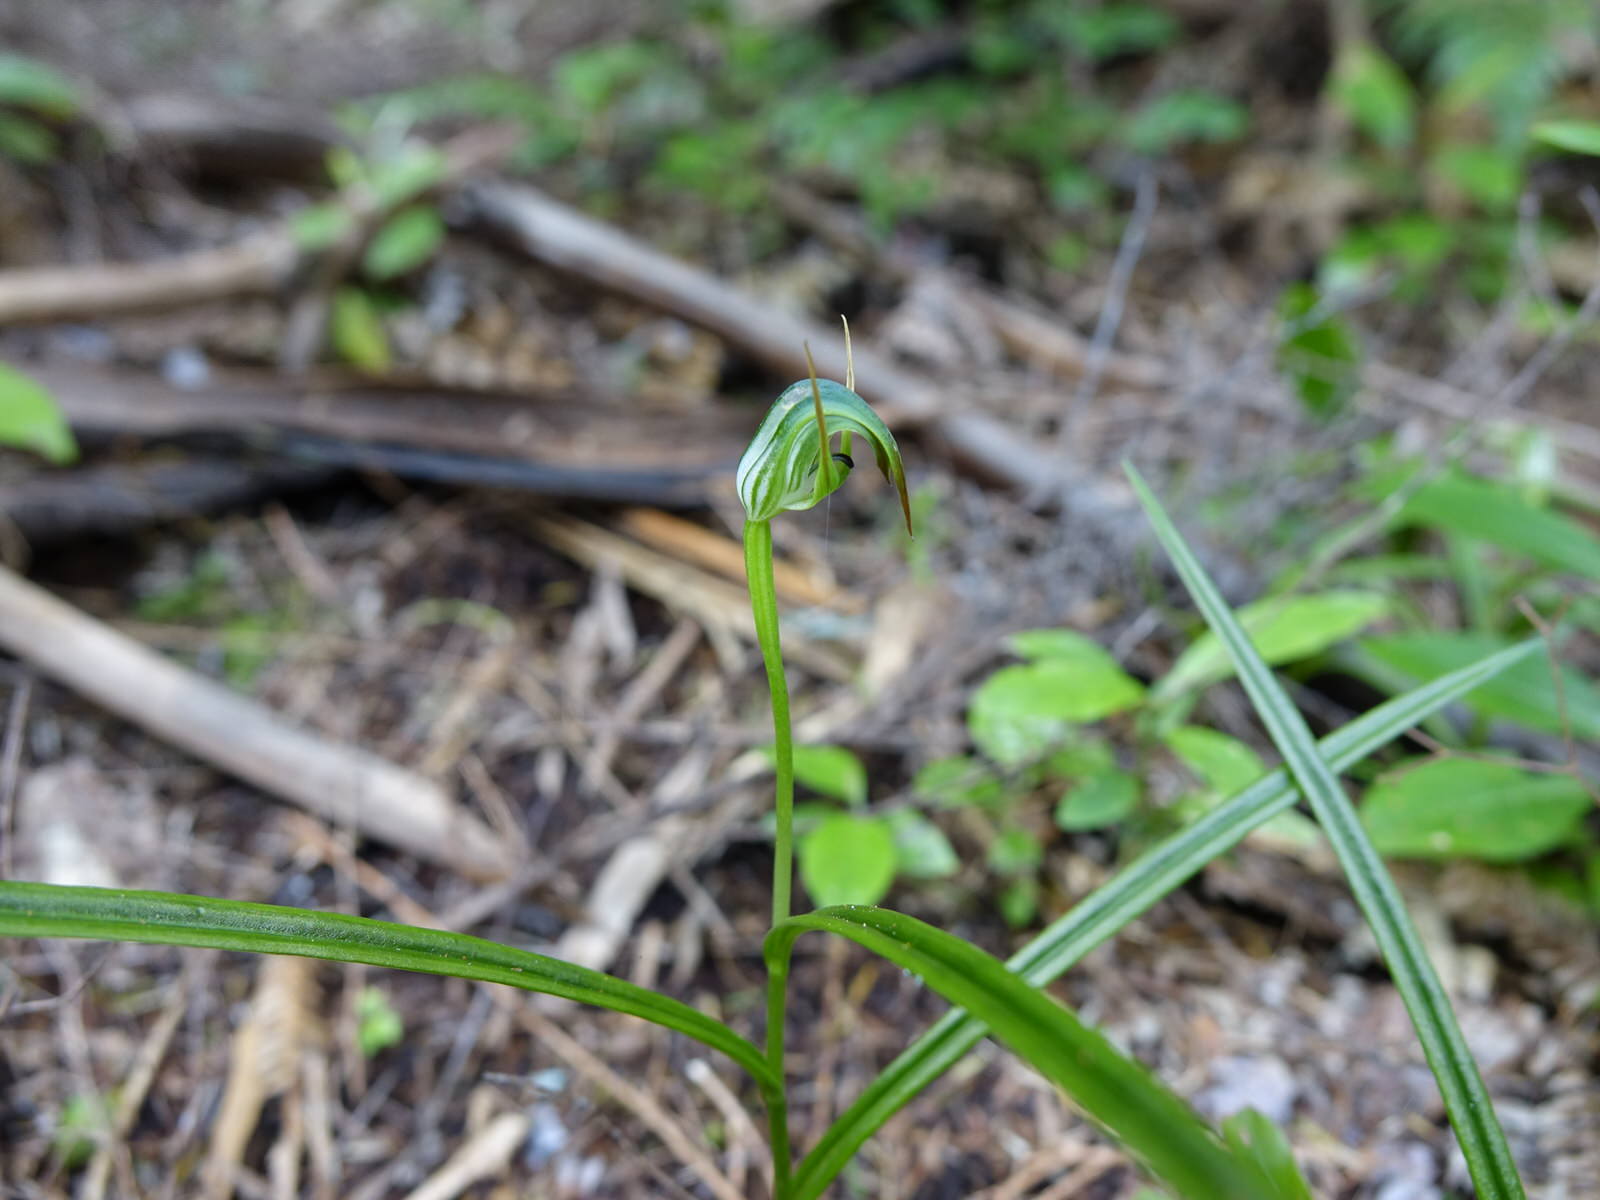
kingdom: Plantae
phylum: Tracheophyta
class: Liliopsida
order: Asparagales
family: Orchidaceae
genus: Pterostylis
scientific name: Pterostylis graminea
